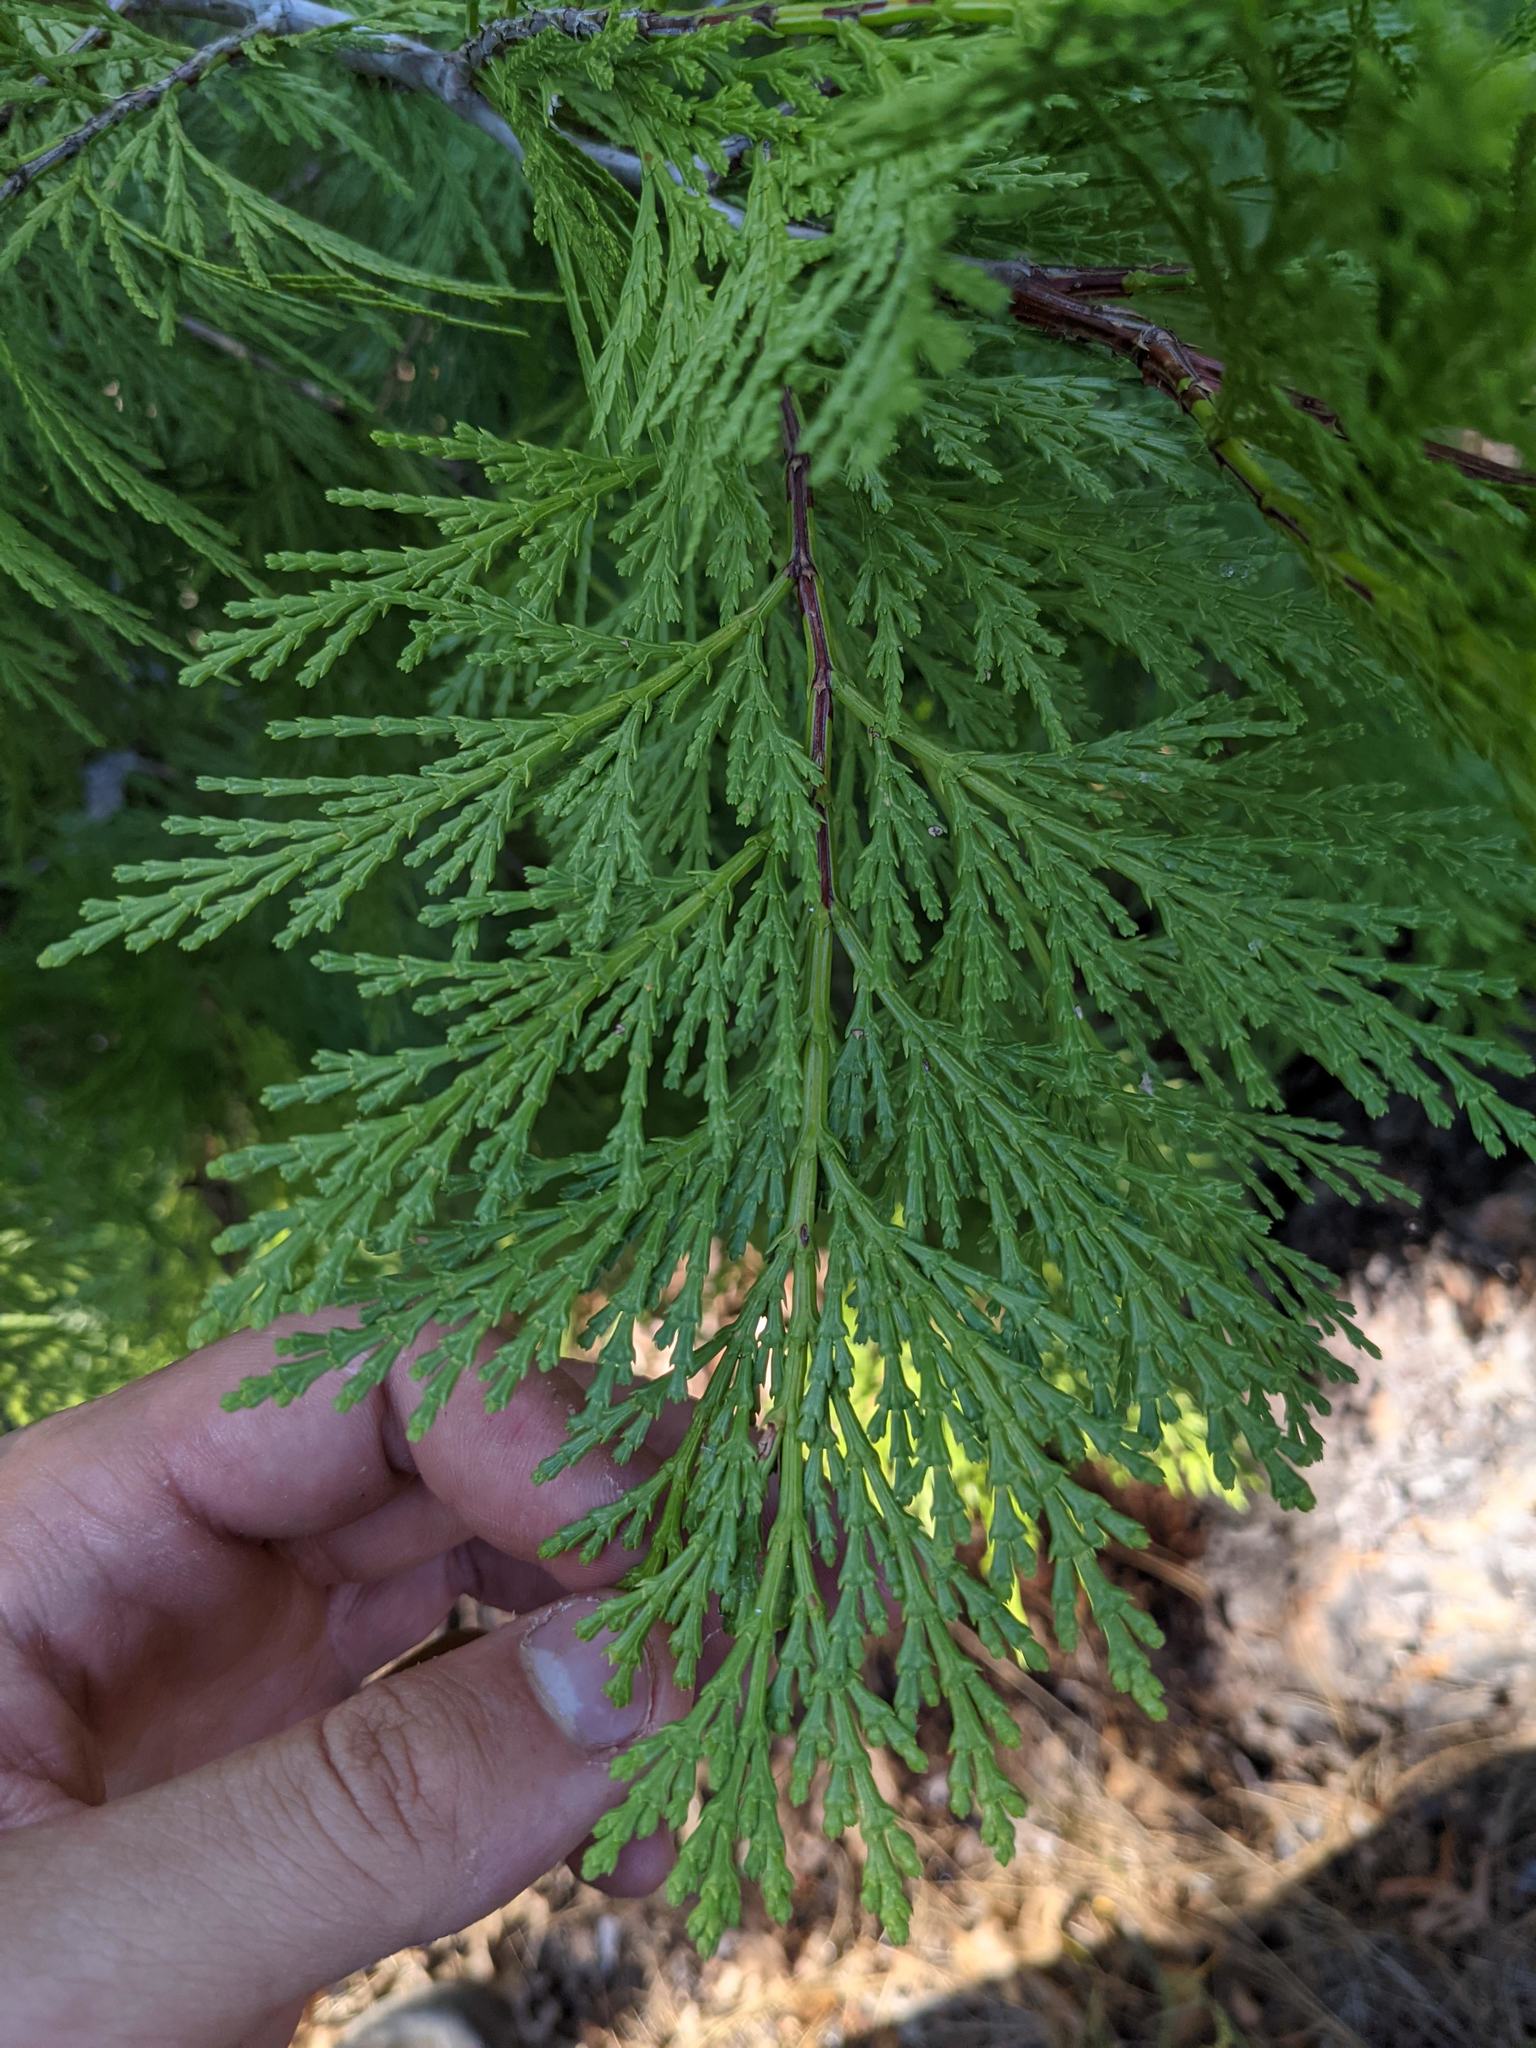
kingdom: Plantae
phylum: Tracheophyta
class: Pinopsida
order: Pinales
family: Cupressaceae
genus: Calocedrus
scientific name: Calocedrus decurrens
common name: Californian incense-cedar
